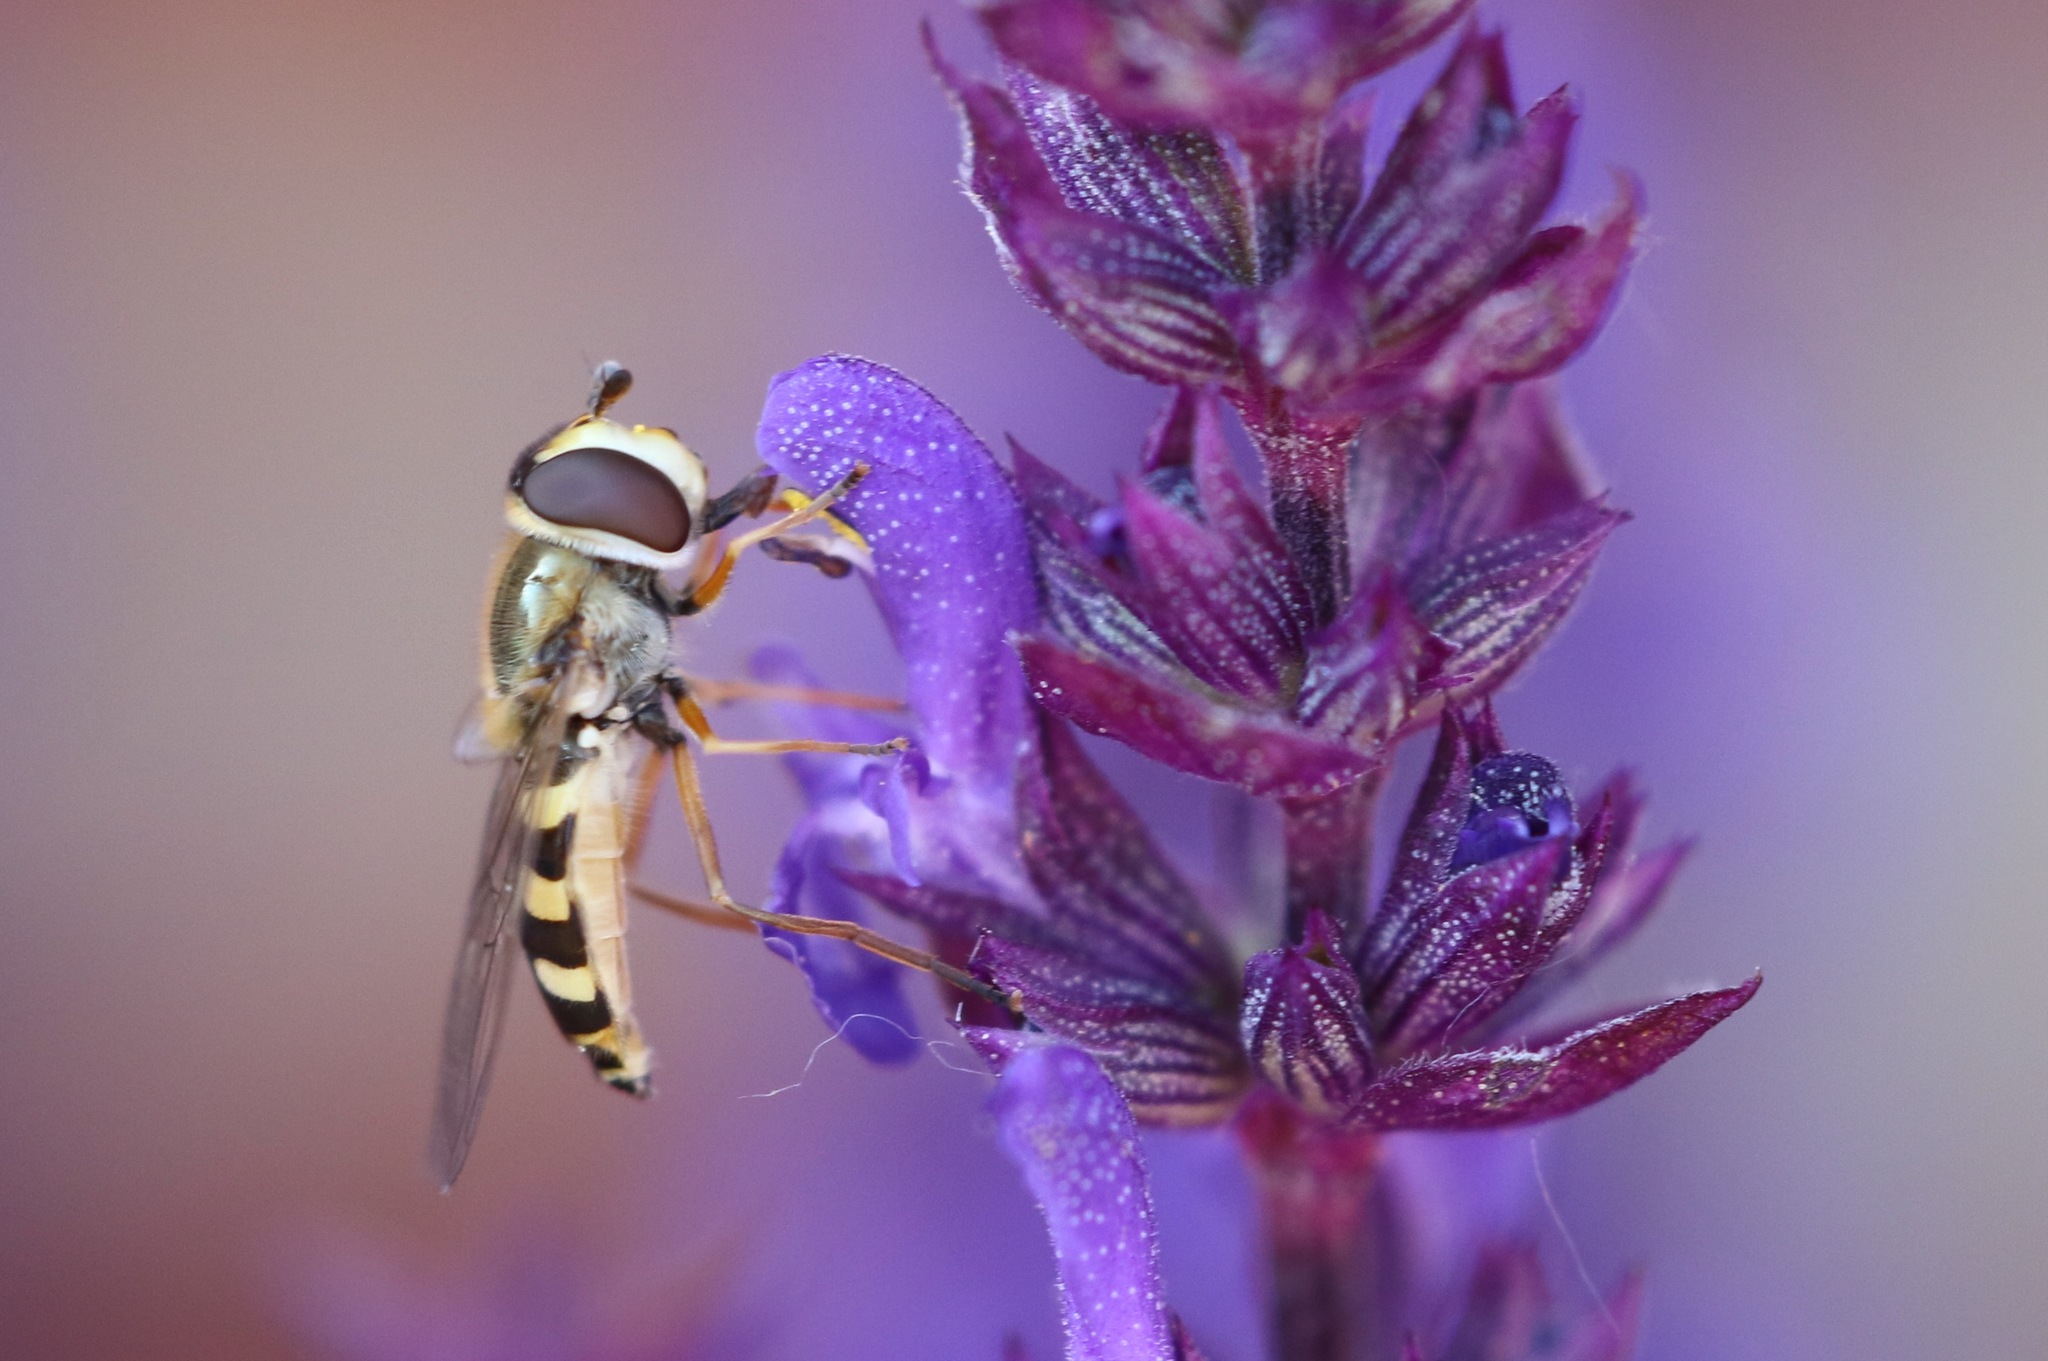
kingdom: Animalia
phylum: Arthropoda
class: Insecta
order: Diptera
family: Syrphidae
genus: Eupeodes
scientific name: Eupeodes corollae
